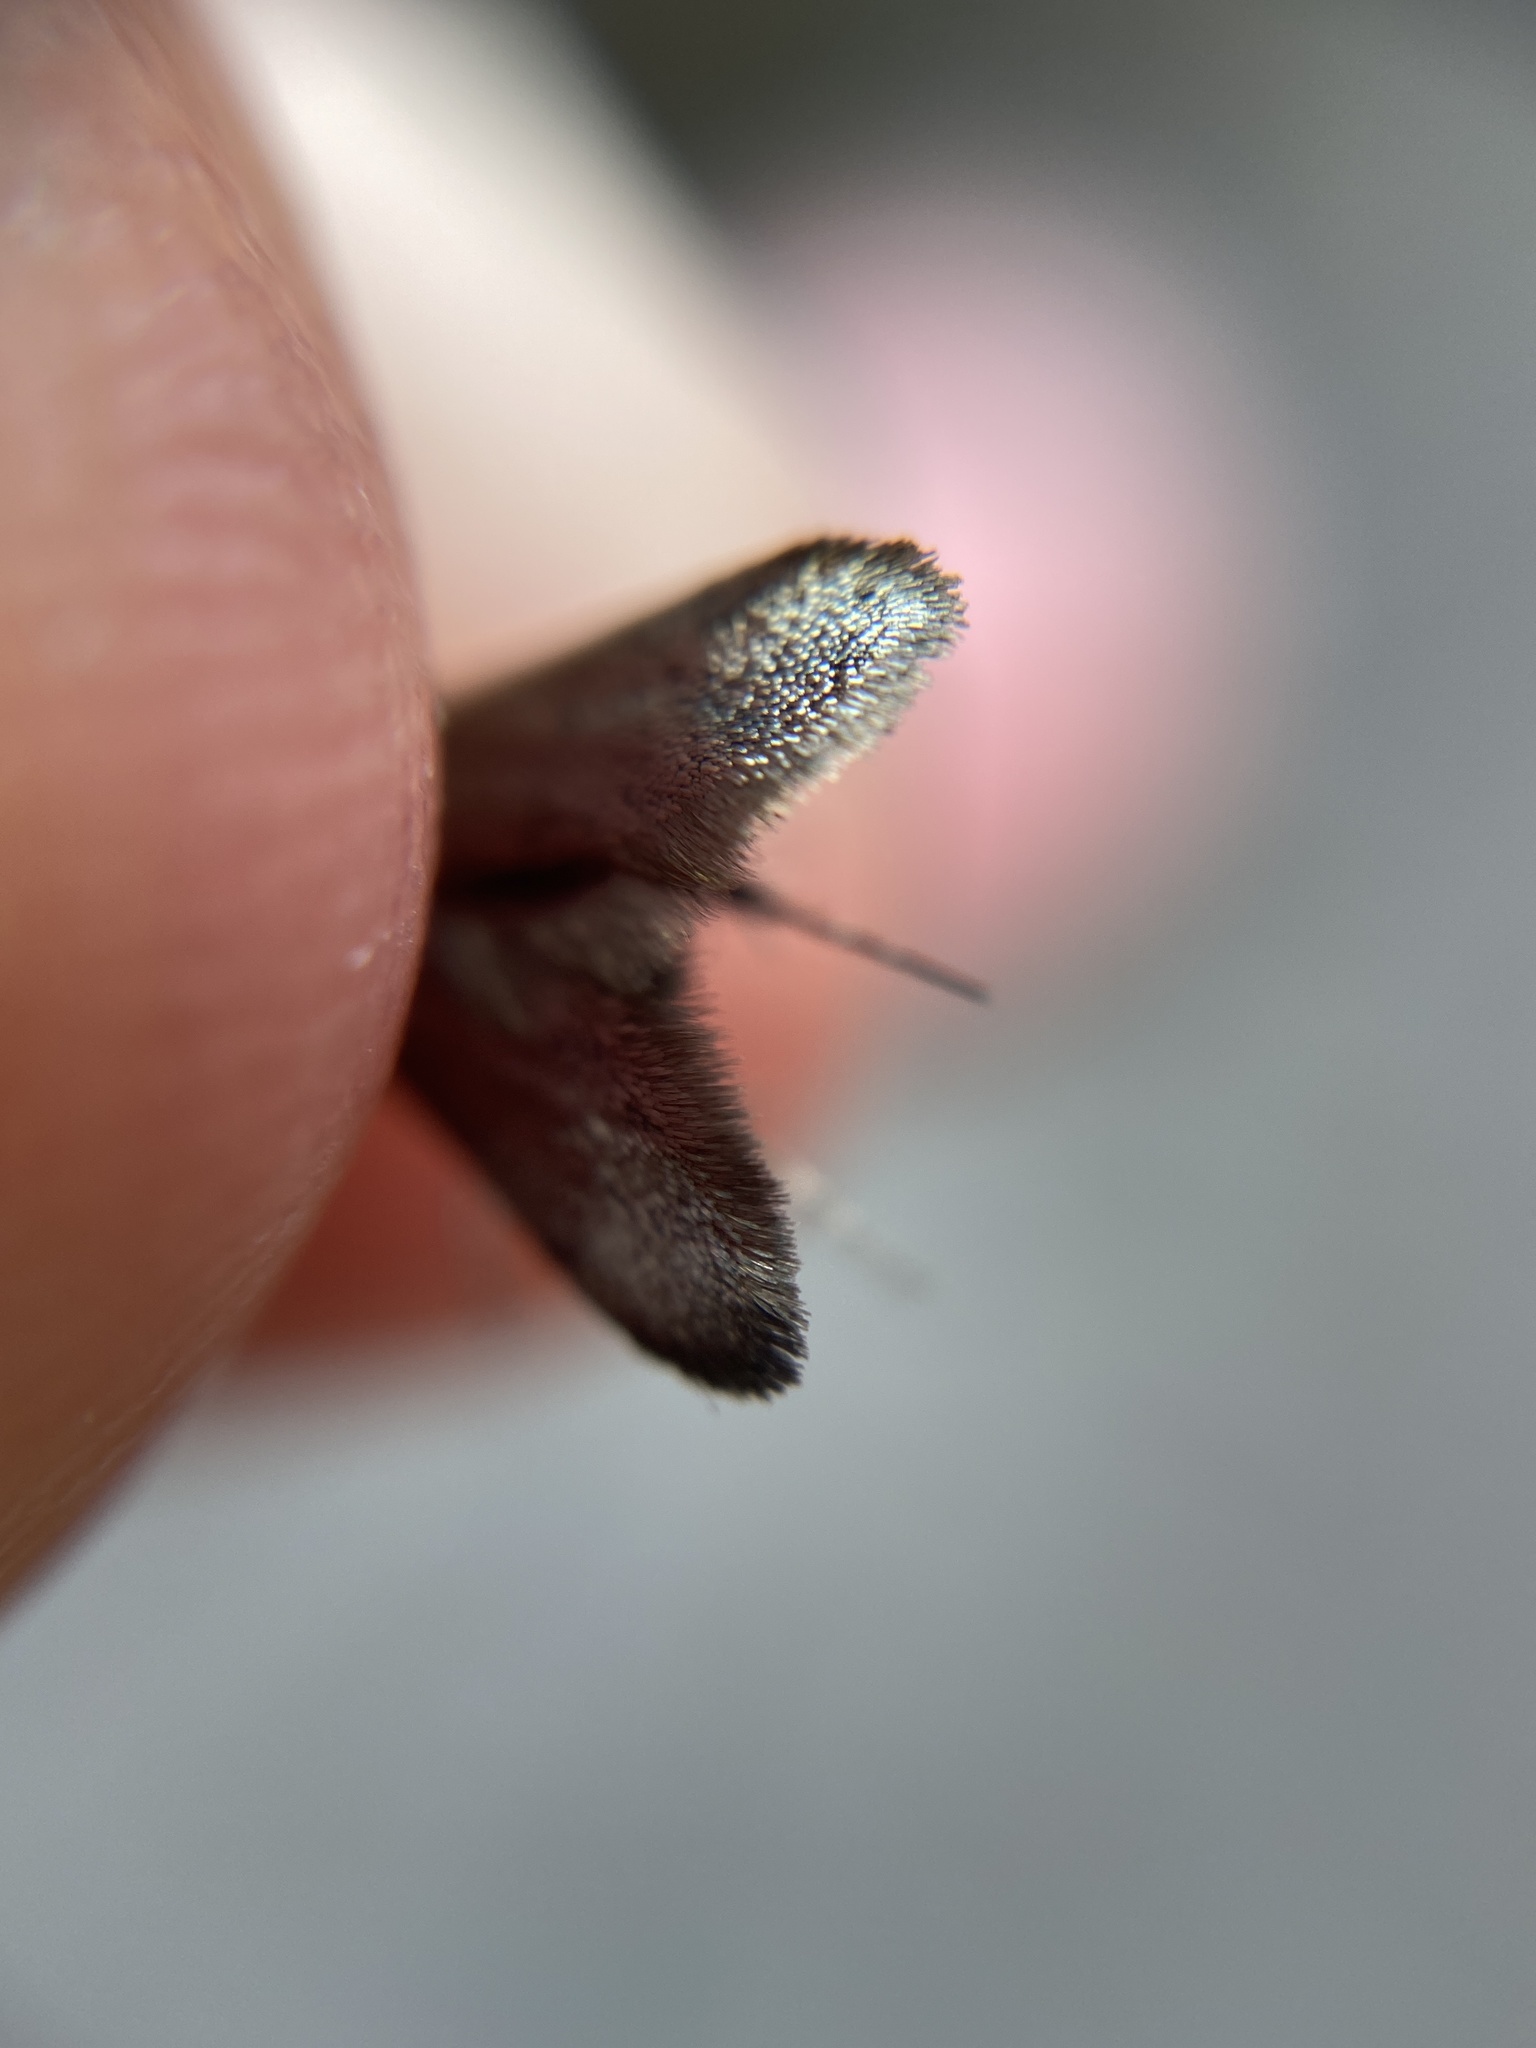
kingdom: Animalia
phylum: Arthropoda
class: Insecta
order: Lepidoptera
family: Adelidae
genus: Adela
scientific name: Adela viridella
